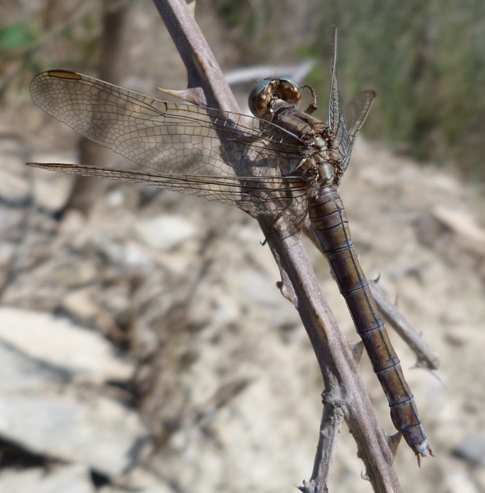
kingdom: Animalia
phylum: Arthropoda
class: Insecta
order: Odonata
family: Libellulidae
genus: Orthetrum
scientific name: Orthetrum coerulescens
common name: Keeled skimmer
